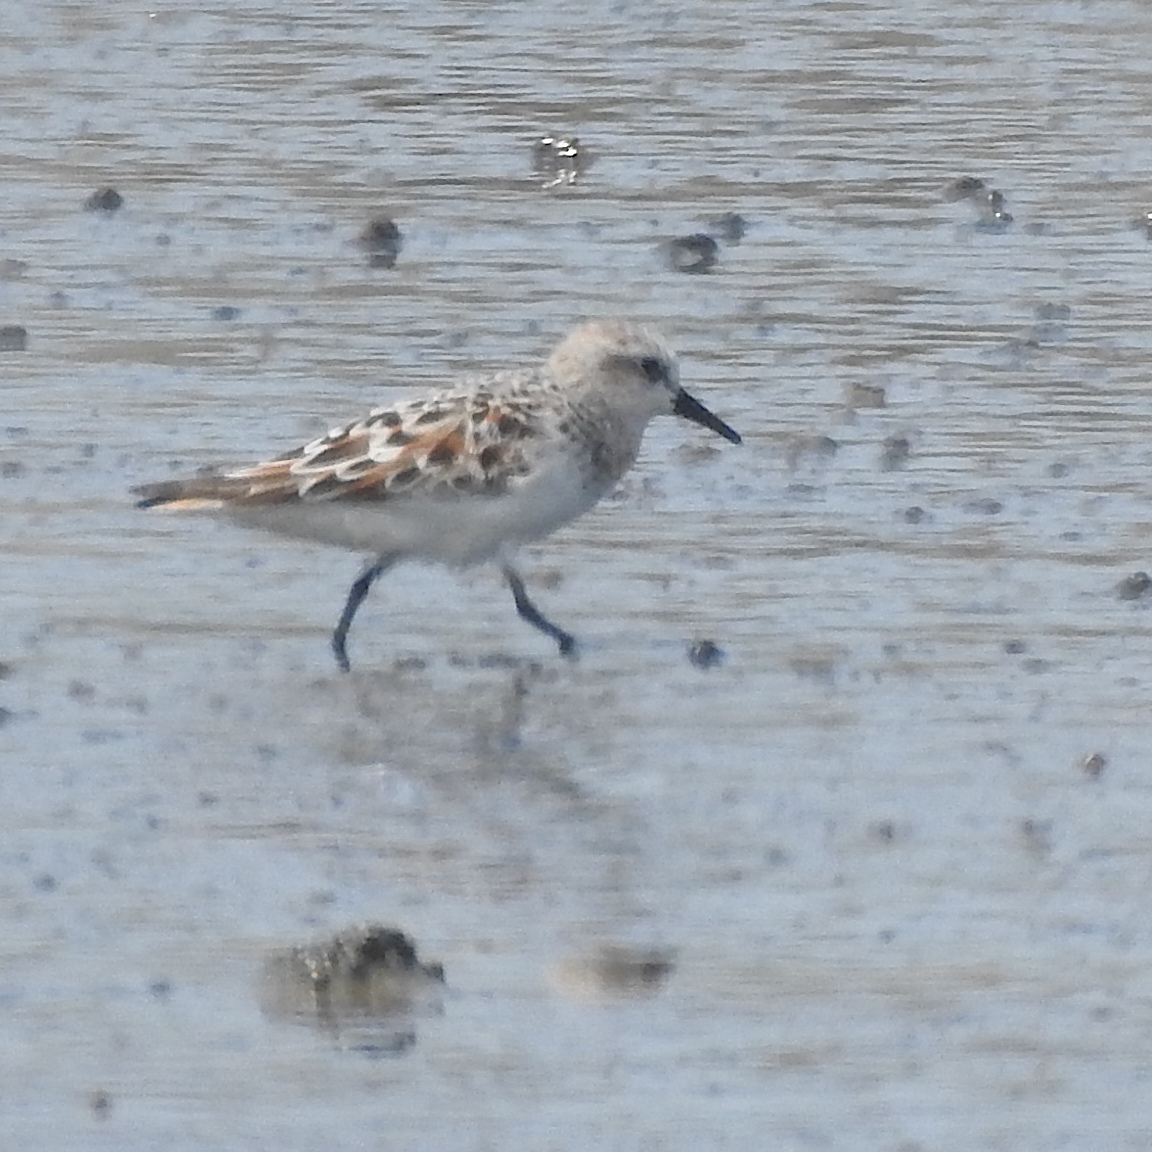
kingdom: Animalia
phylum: Chordata
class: Aves
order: Charadriiformes
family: Scolopacidae
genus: Calidris
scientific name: Calidris ruficollis
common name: Red-necked stint
